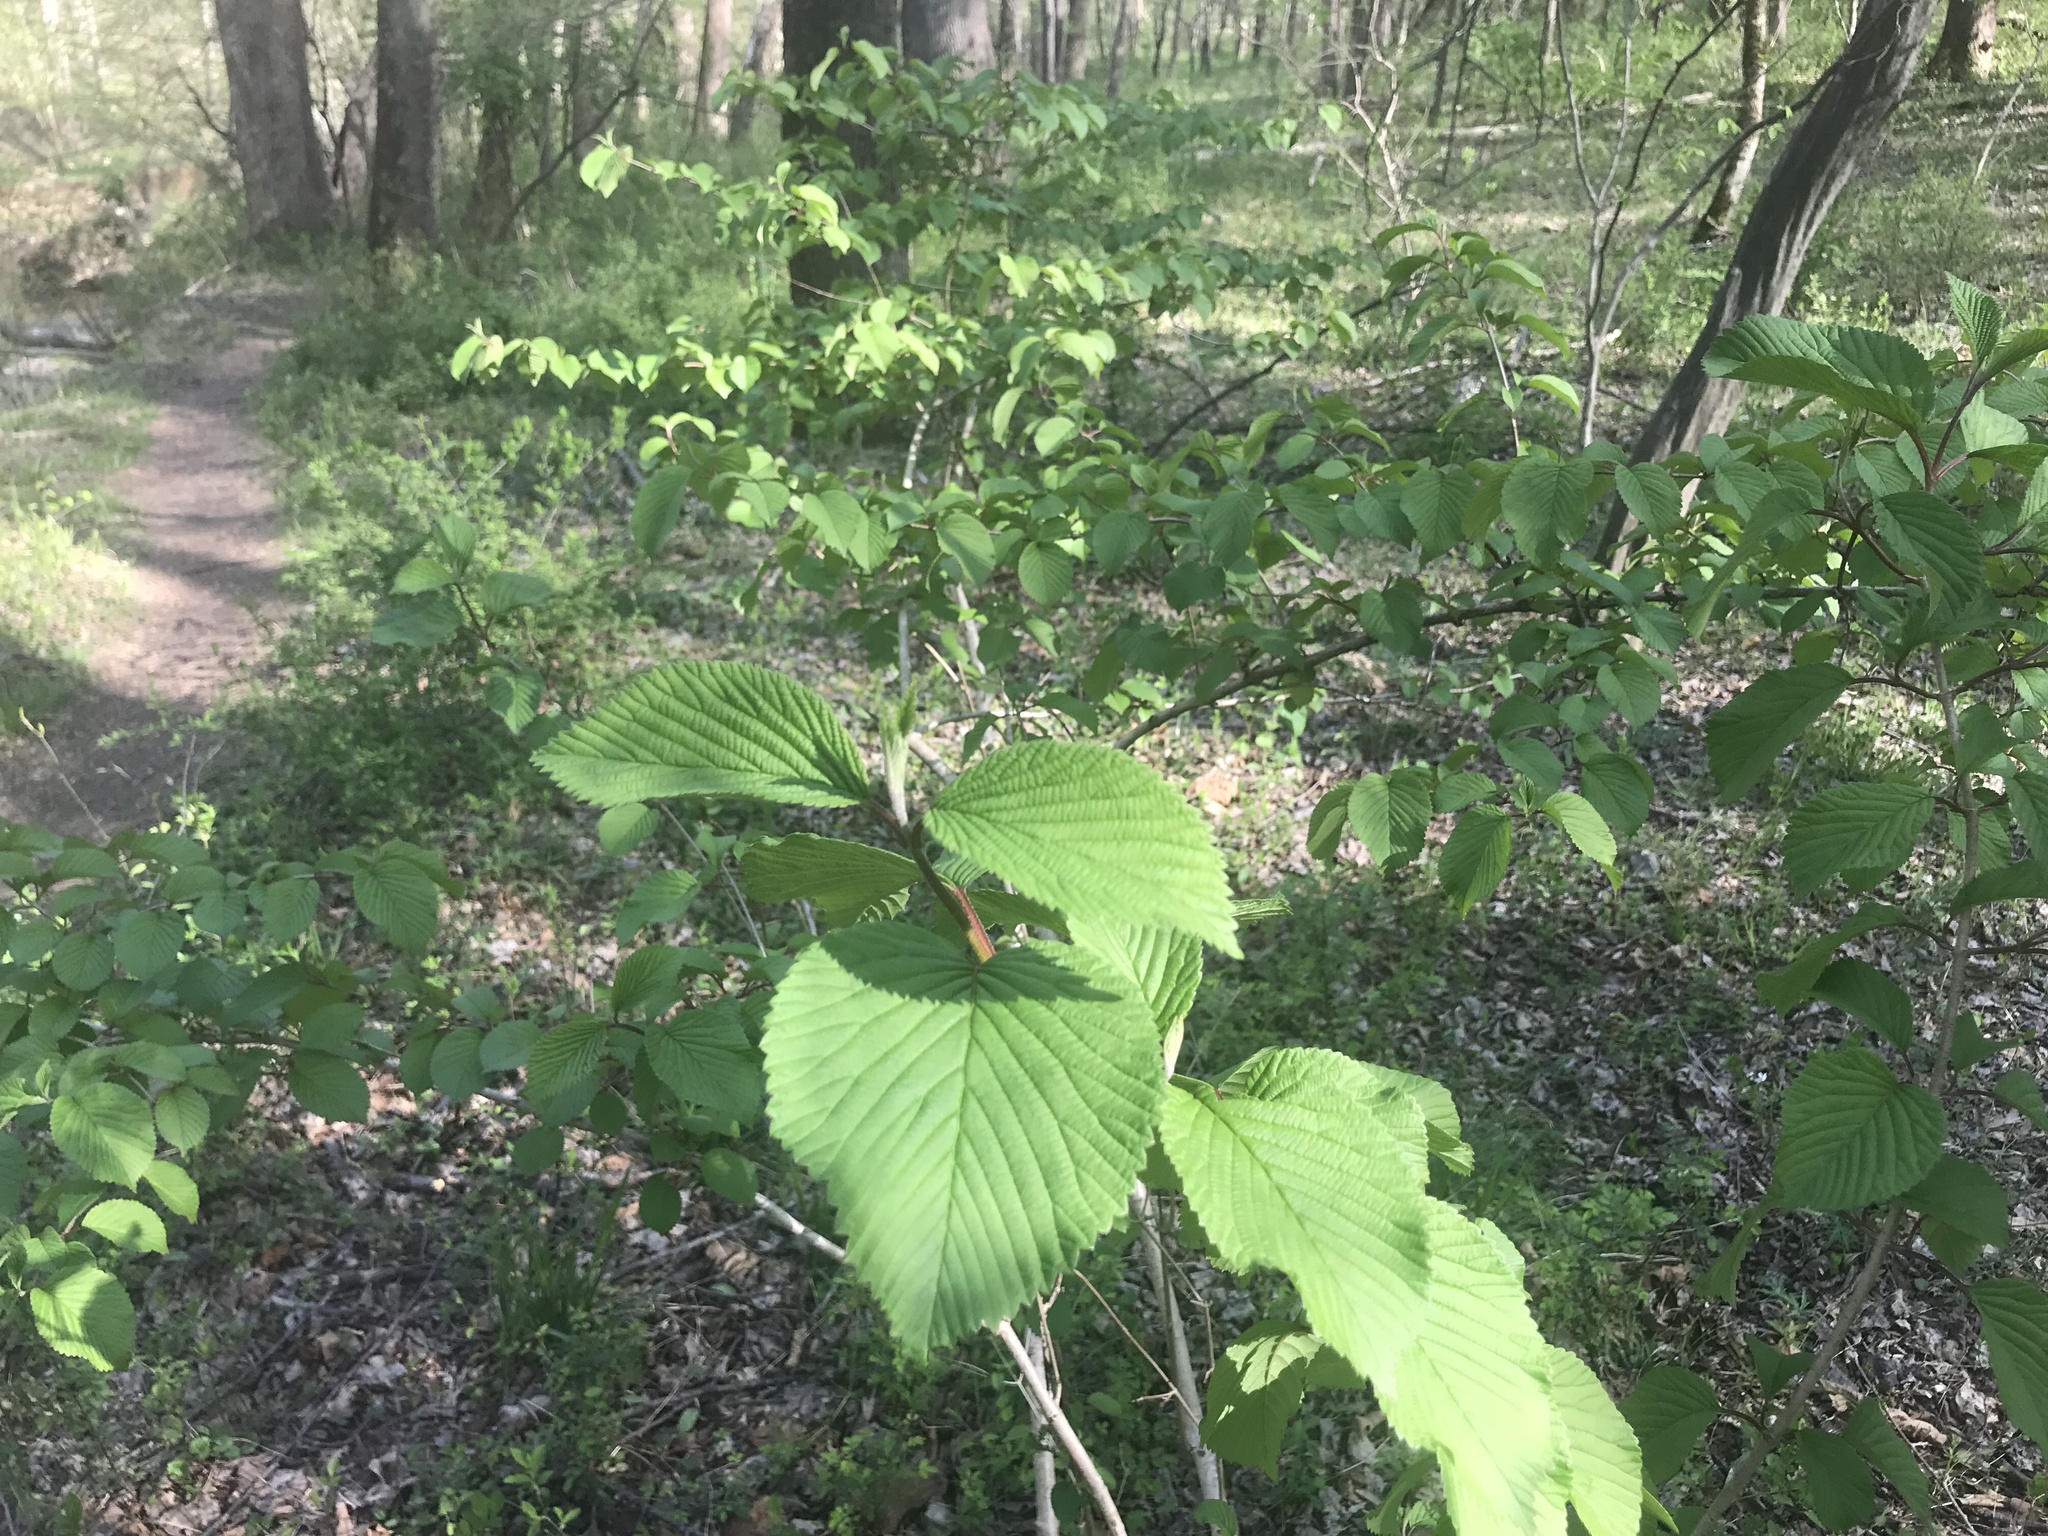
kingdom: Plantae
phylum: Tracheophyta
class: Magnoliopsida
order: Dipsacales
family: Viburnaceae
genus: Viburnum
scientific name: Viburnum plicatum
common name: Japanese snowball
